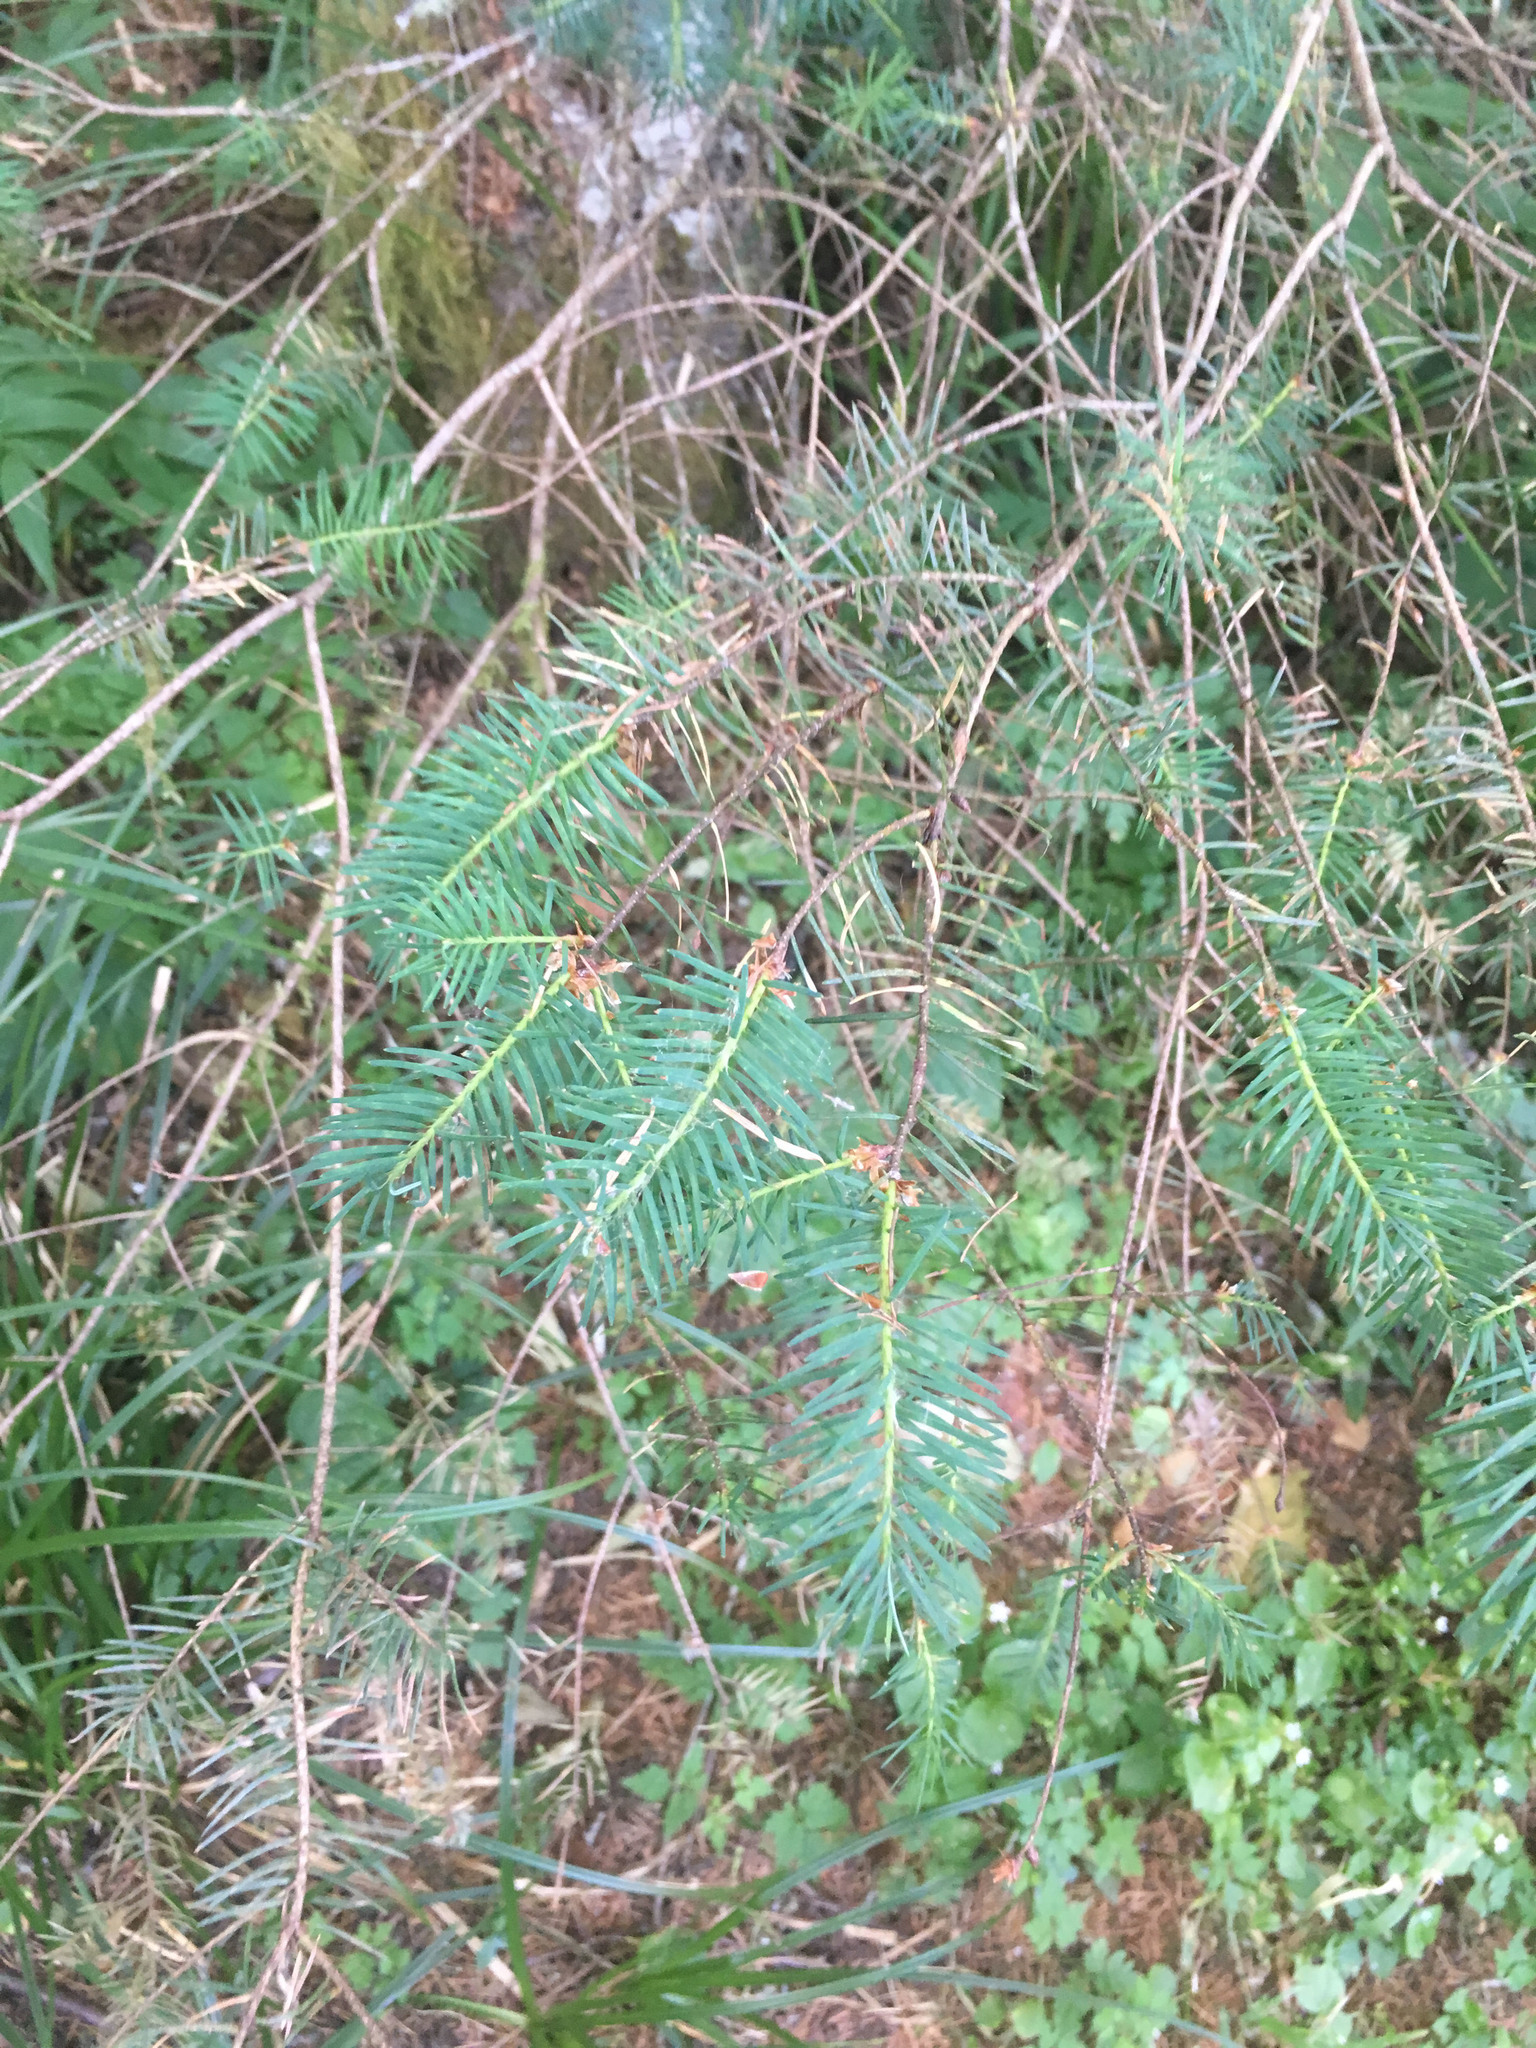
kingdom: Plantae
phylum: Tracheophyta
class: Pinopsida
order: Pinales
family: Pinaceae
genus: Pseudotsuga
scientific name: Pseudotsuga menziesii
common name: Douglas fir
